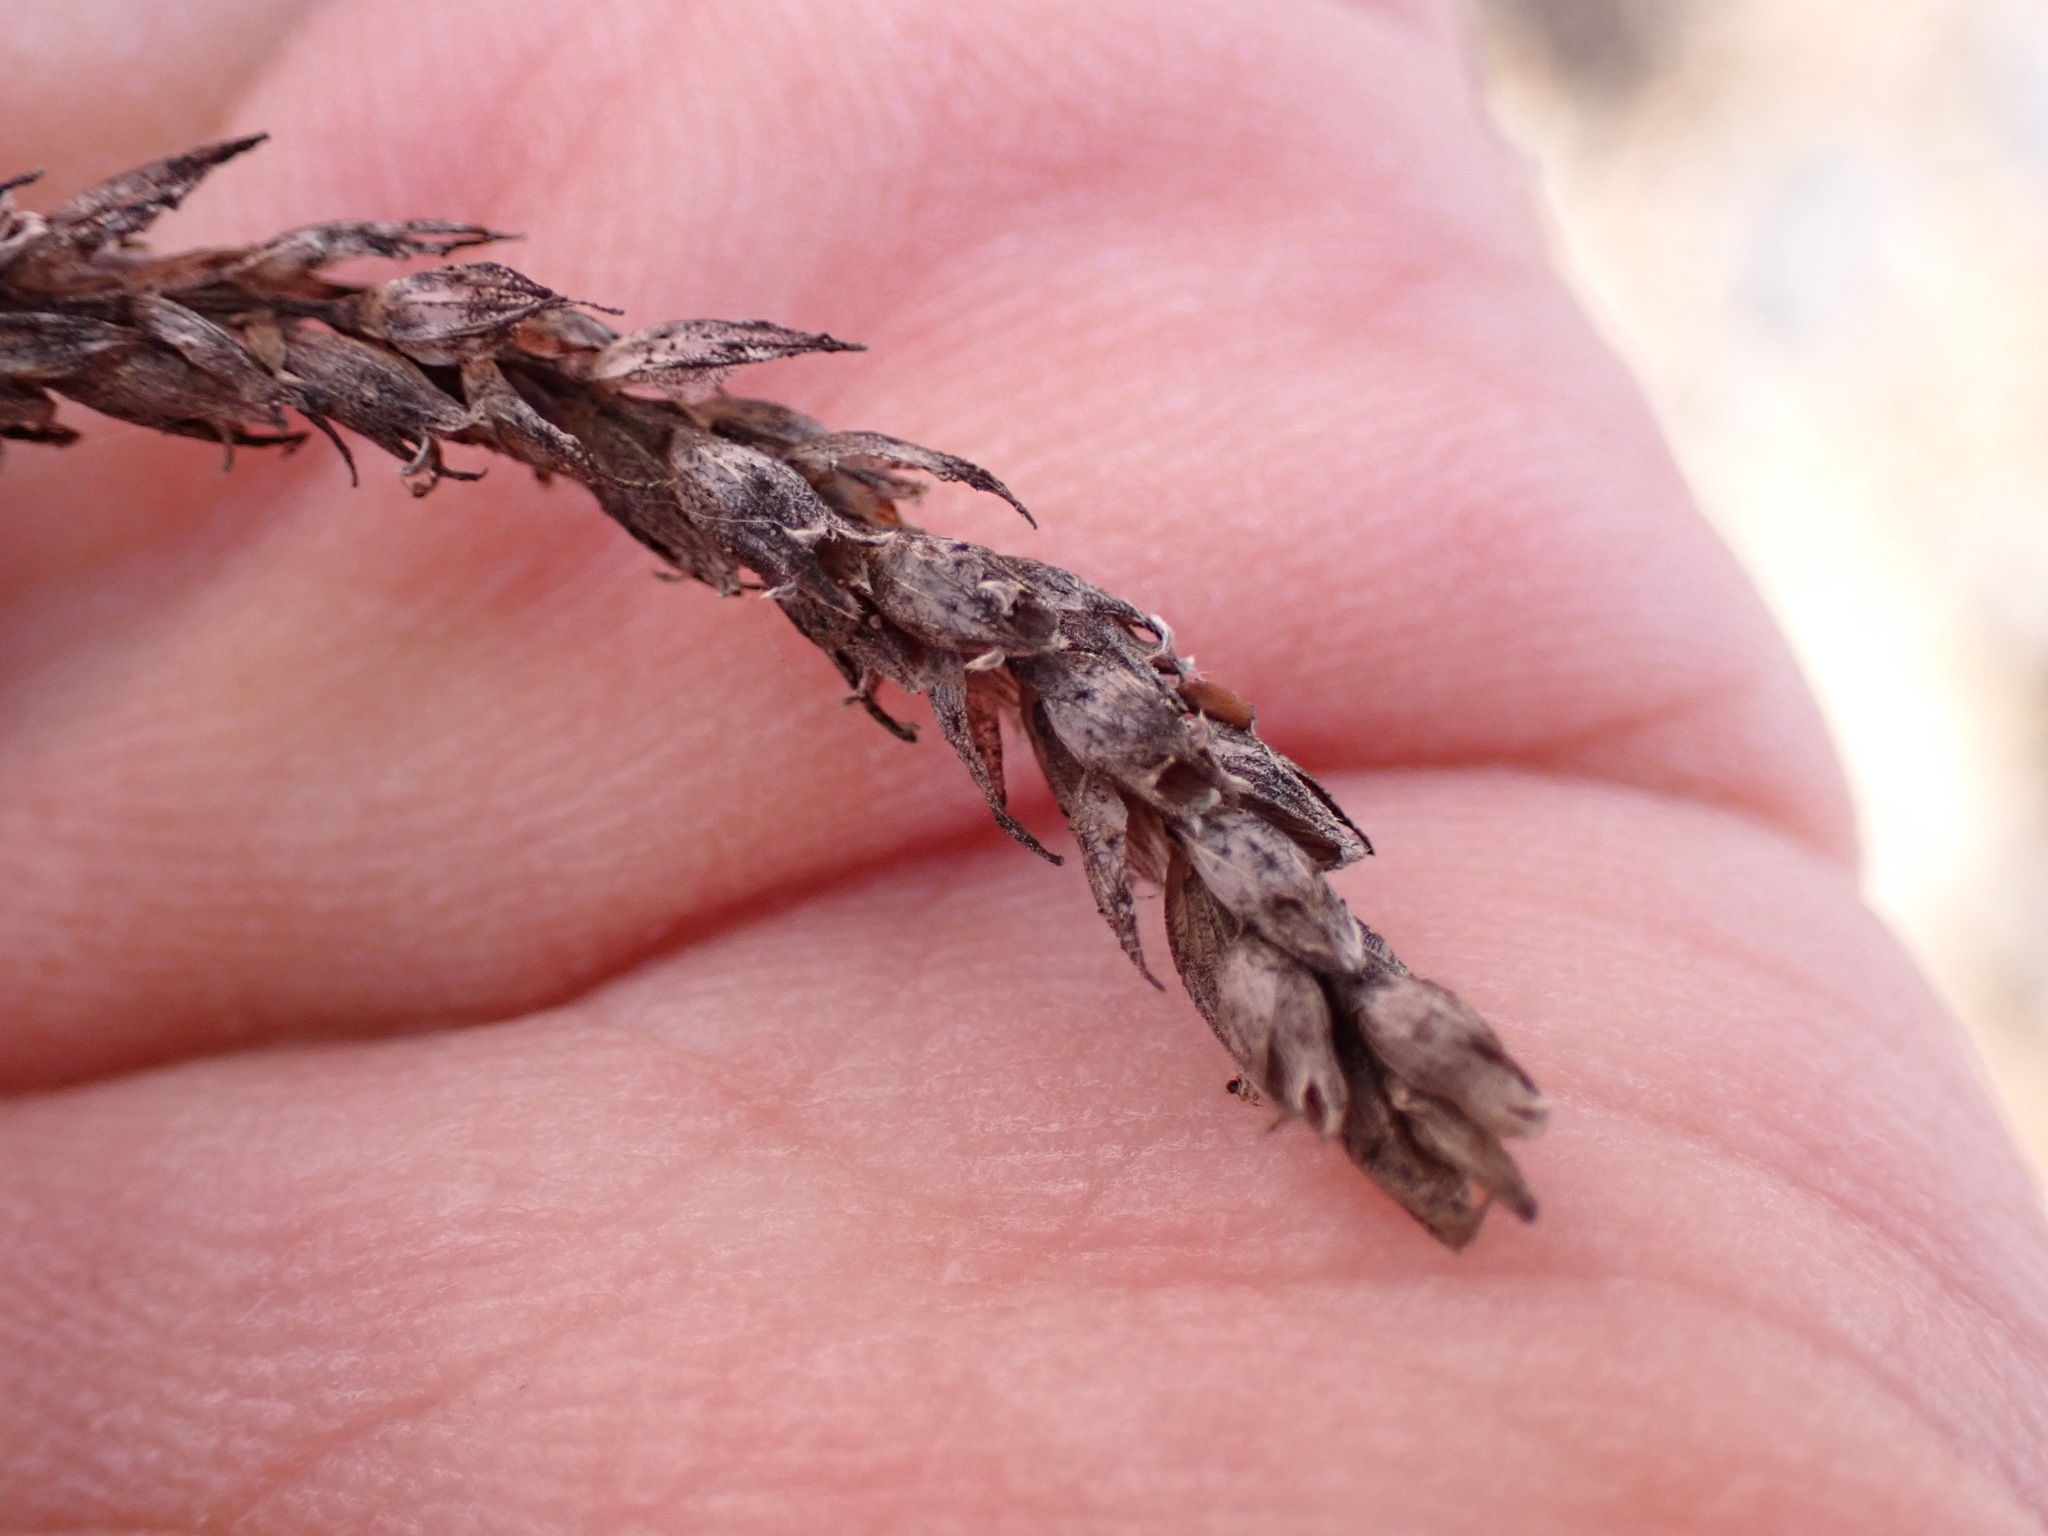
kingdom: Plantae
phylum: Tracheophyta
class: Magnoliopsida
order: Lamiales
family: Lamiaceae
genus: Lavandula
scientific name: Lavandula canariensis
